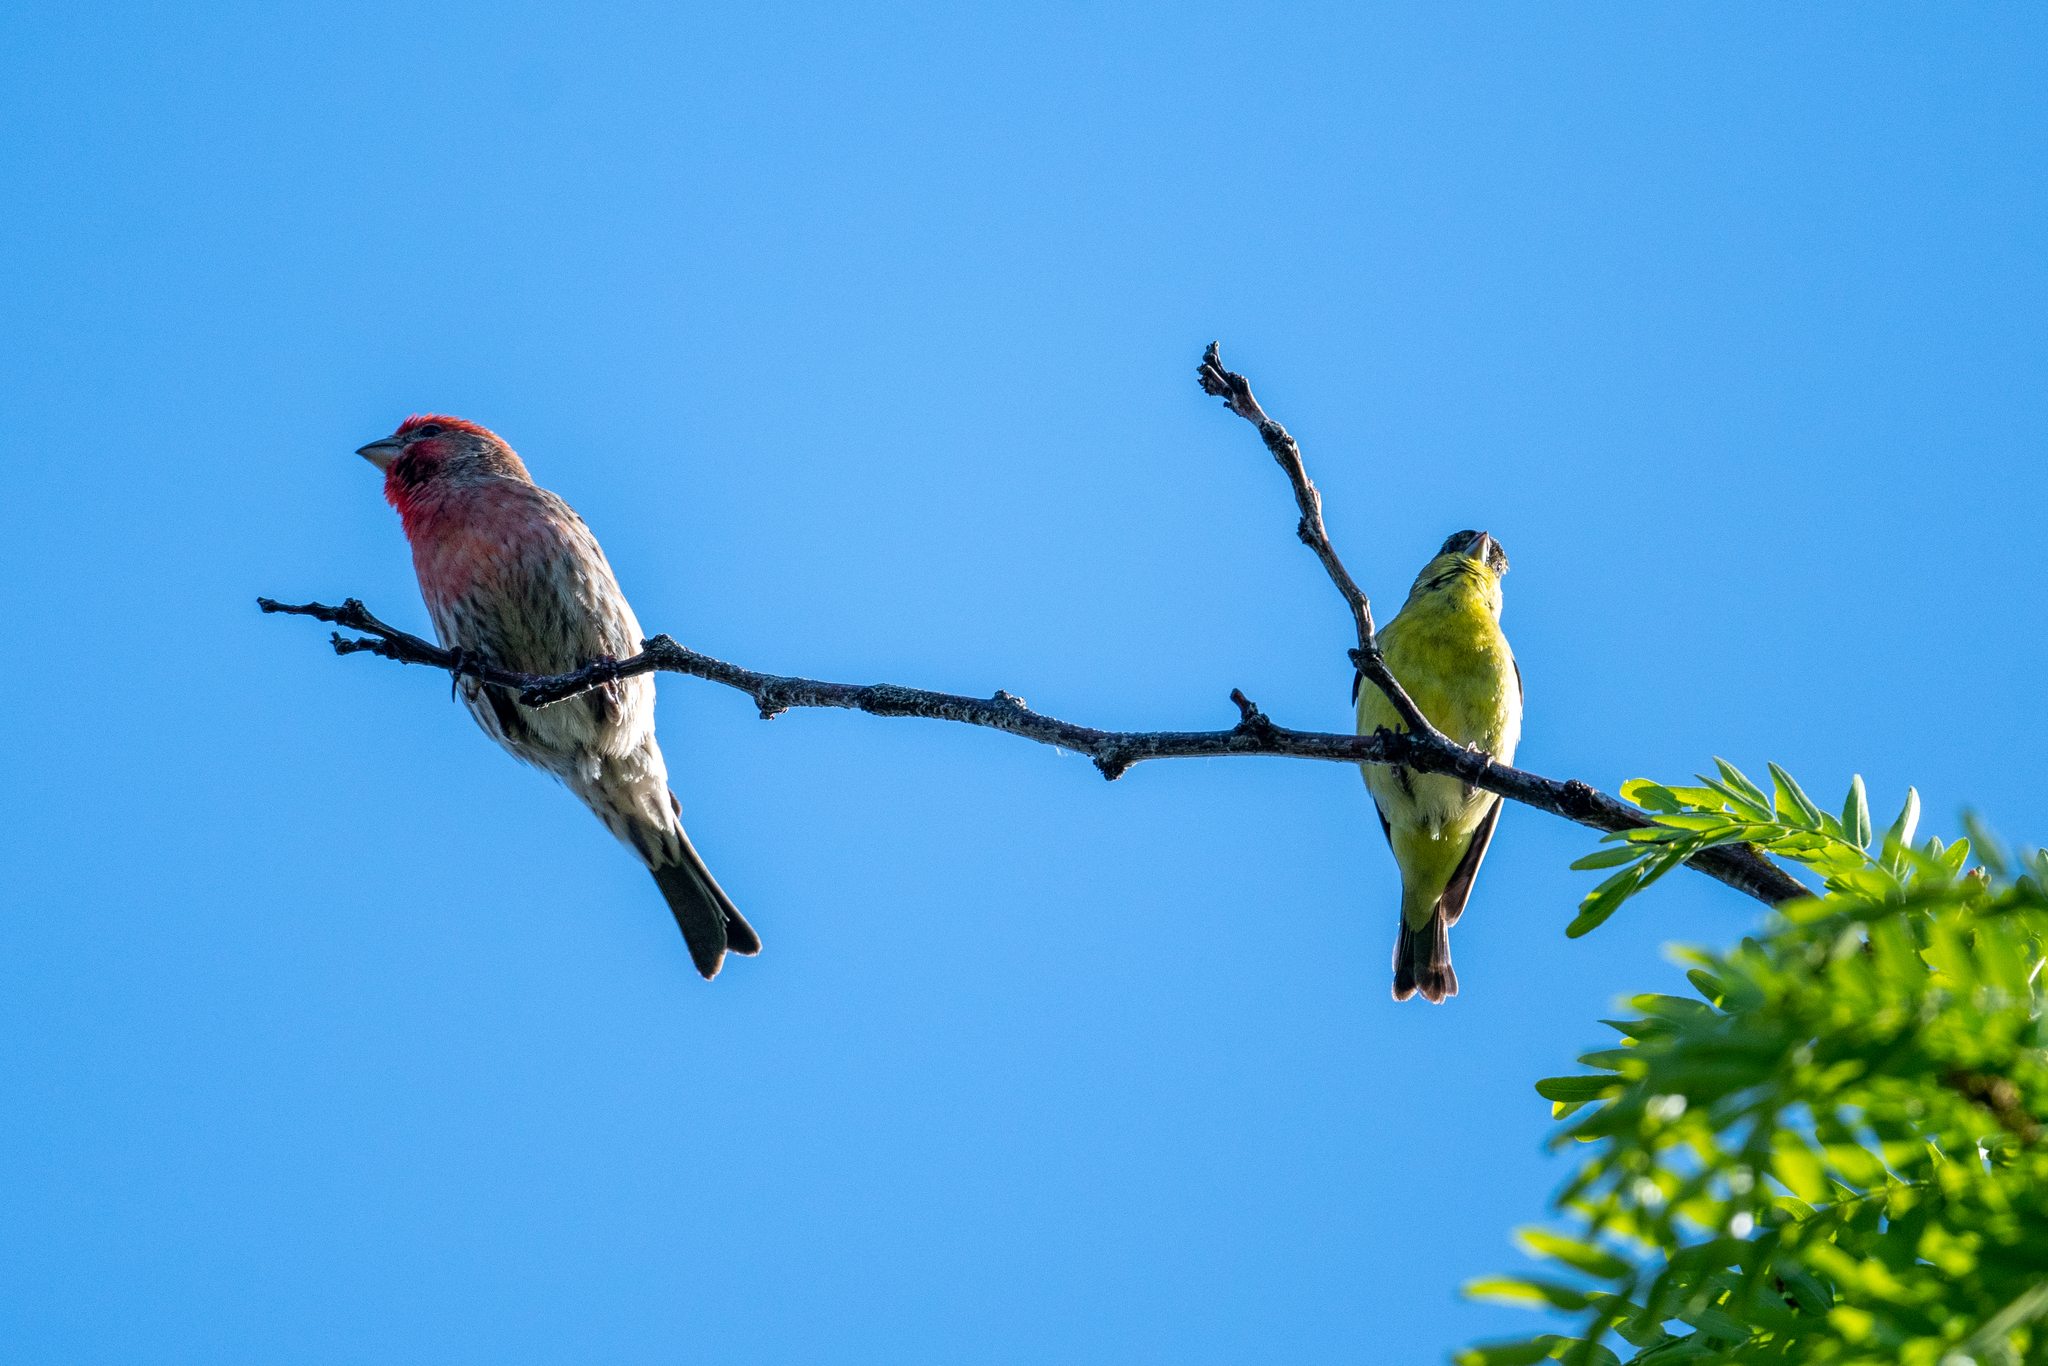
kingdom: Animalia
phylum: Chordata
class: Aves
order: Passeriformes
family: Fringillidae
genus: Haemorhous
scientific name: Haemorhous mexicanus
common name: House finch
